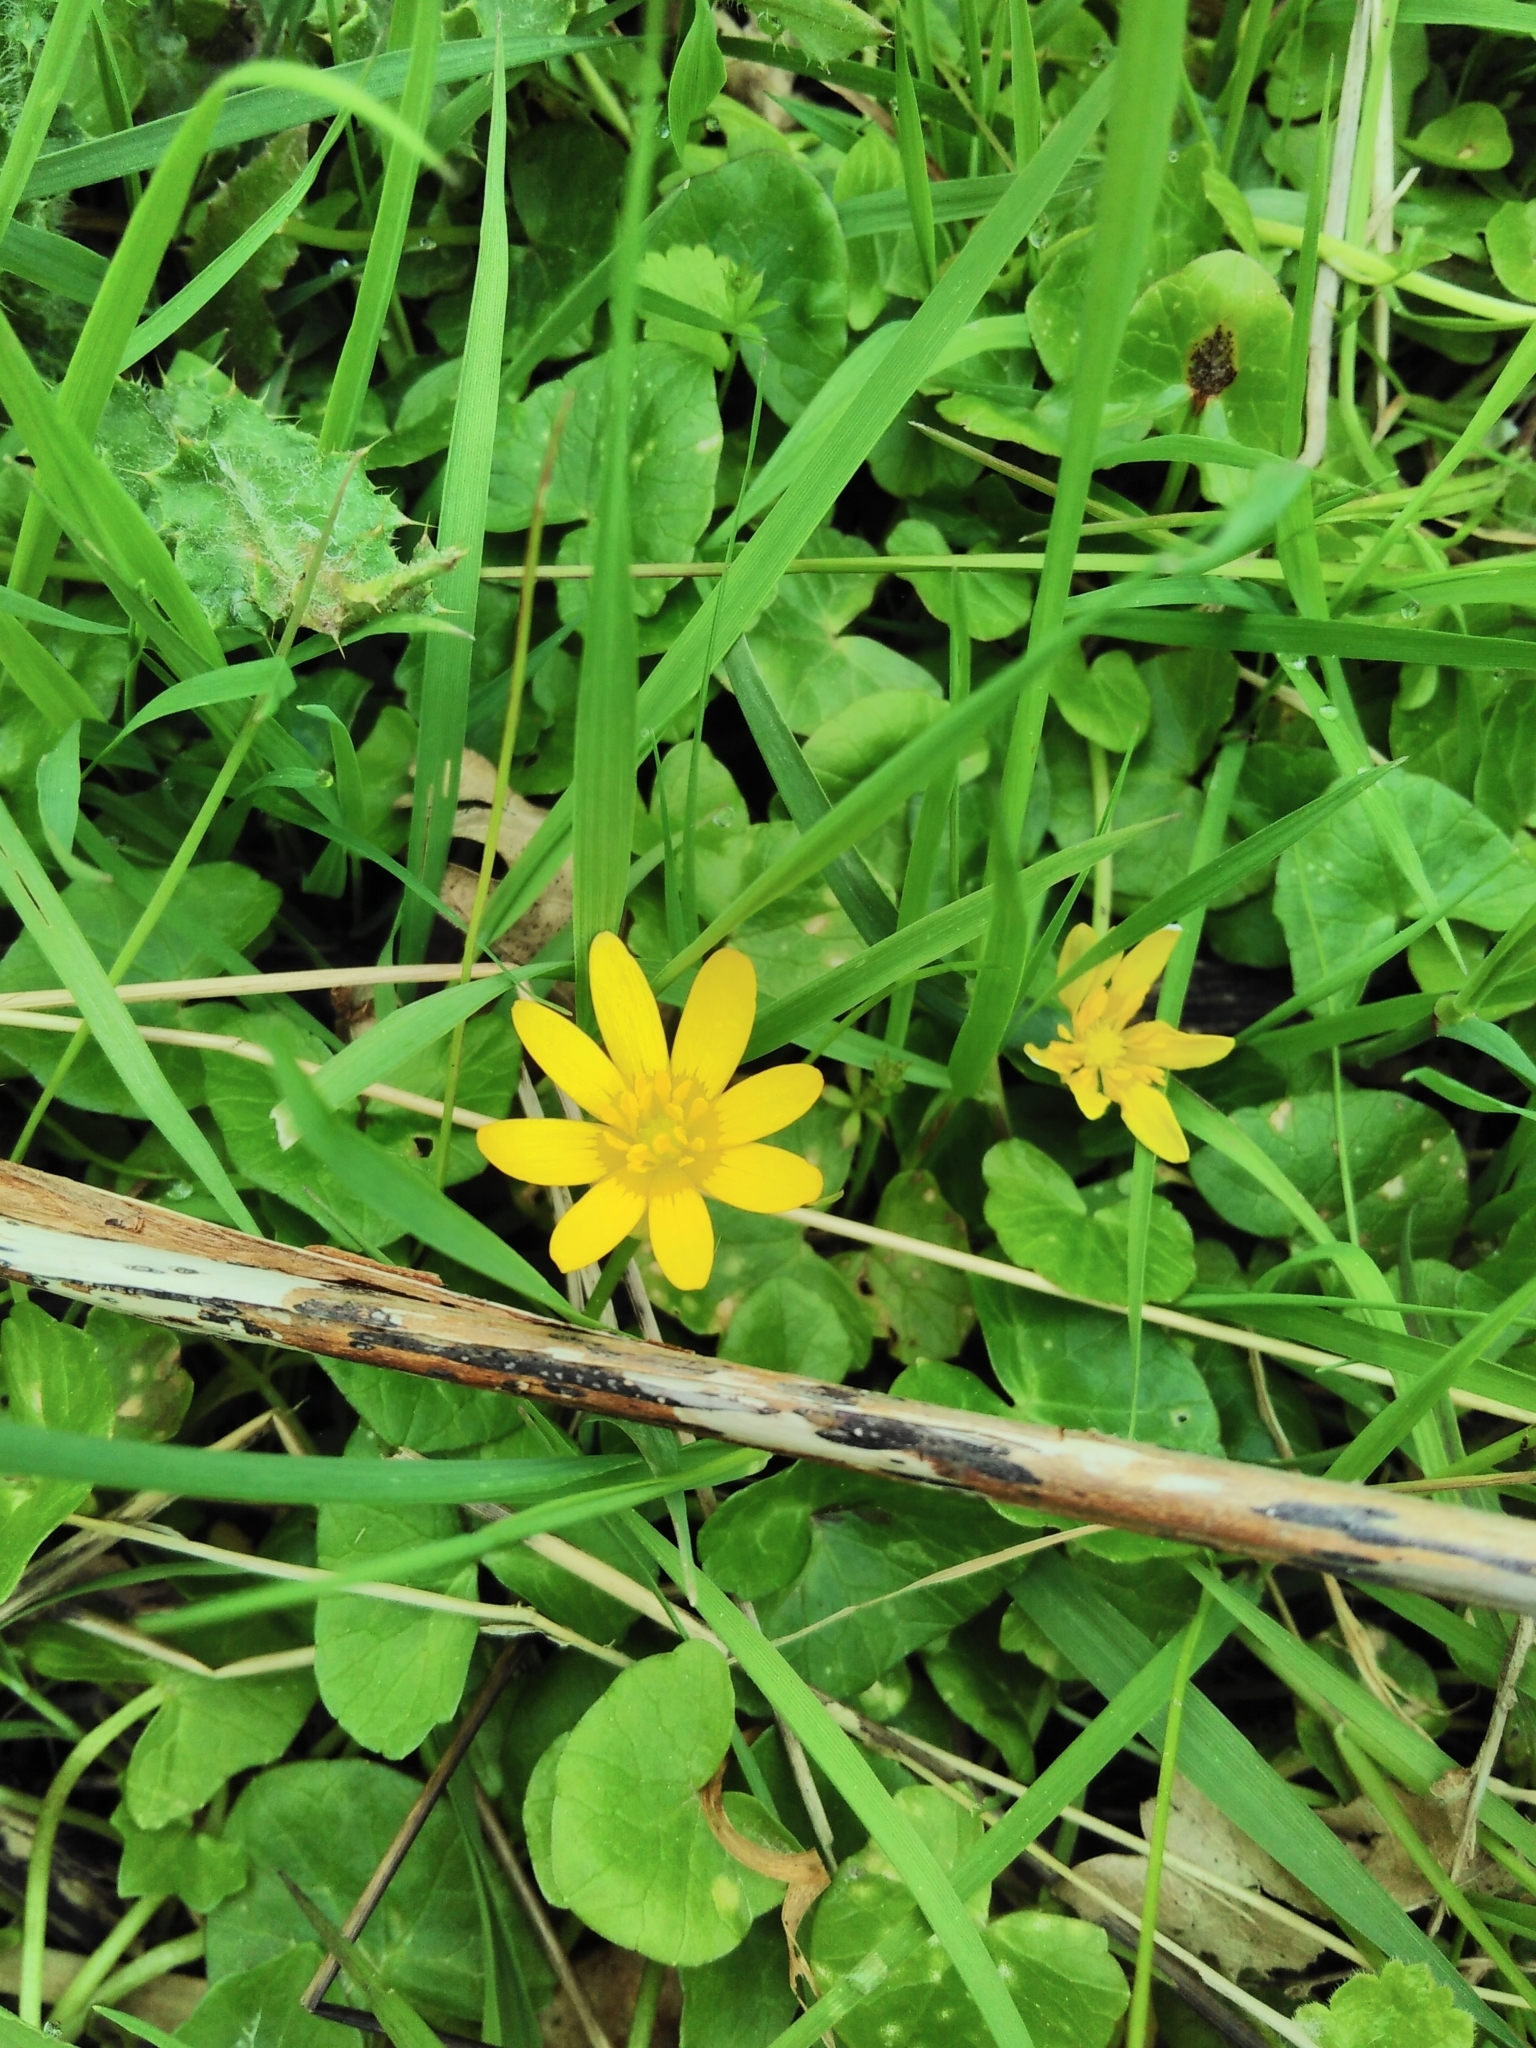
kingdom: Plantae
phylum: Tracheophyta
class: Magnoliopsida
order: Ranunculales
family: Ranunculaceae
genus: Ficaria
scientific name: Ficaria verna
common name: Lesser celandine
